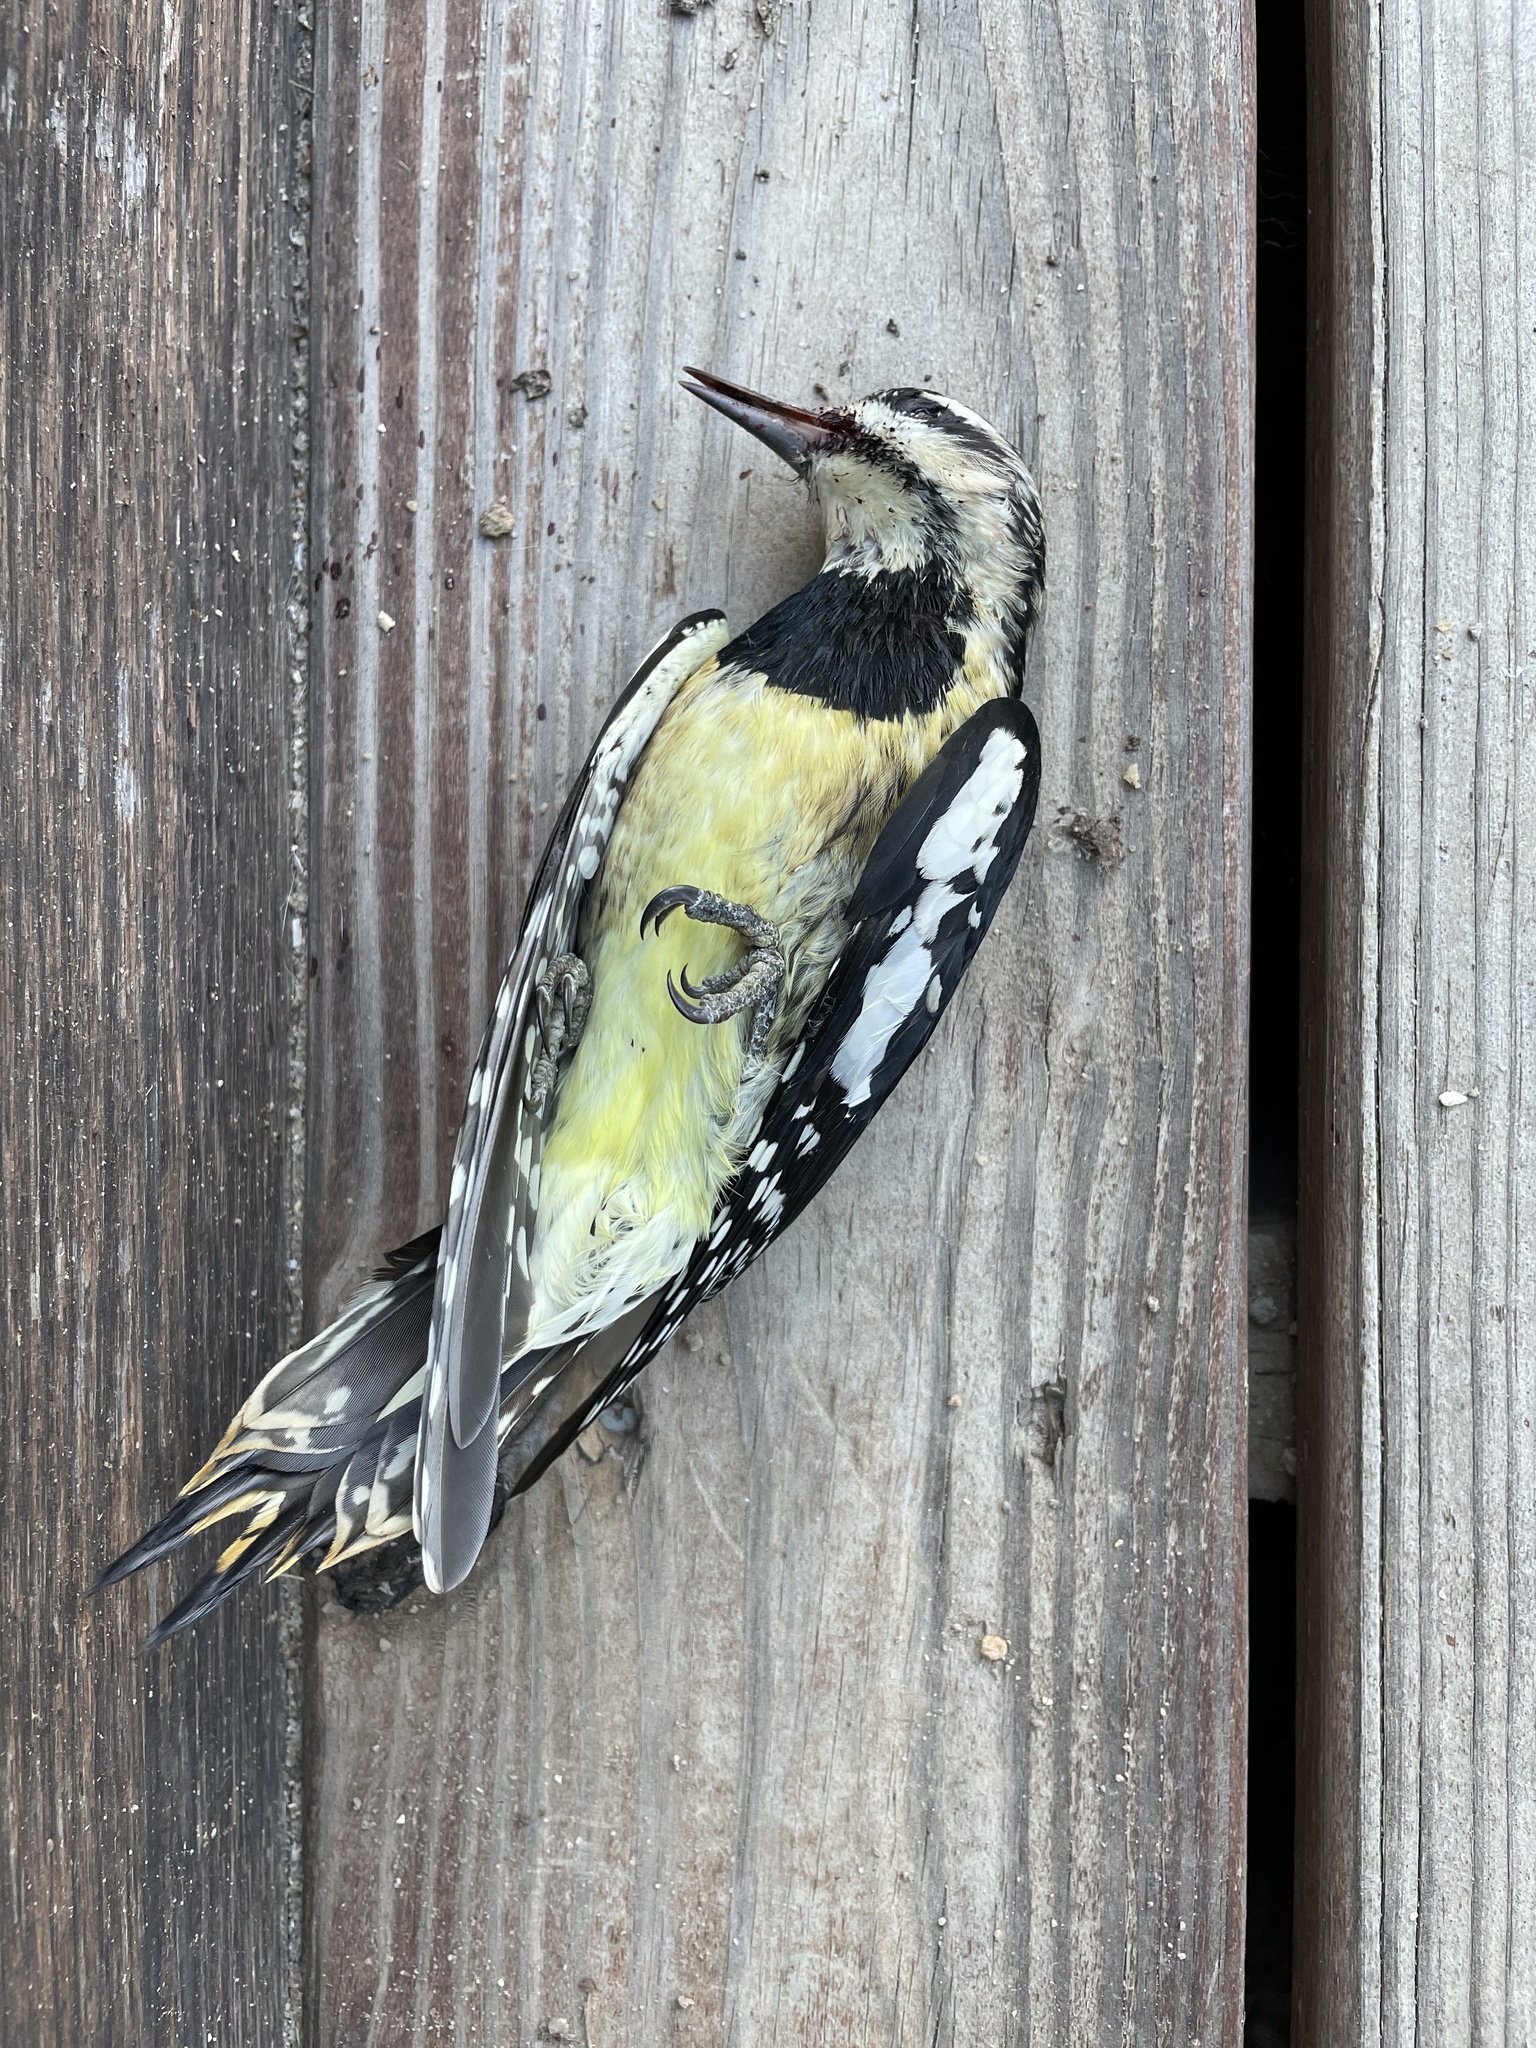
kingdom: Animalia
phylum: Chordata
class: Aves
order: Piciformes
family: Picidae
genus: Sphyrapicus
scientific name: Sphyrapicus varius
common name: Yellow-bellied sapsucker
